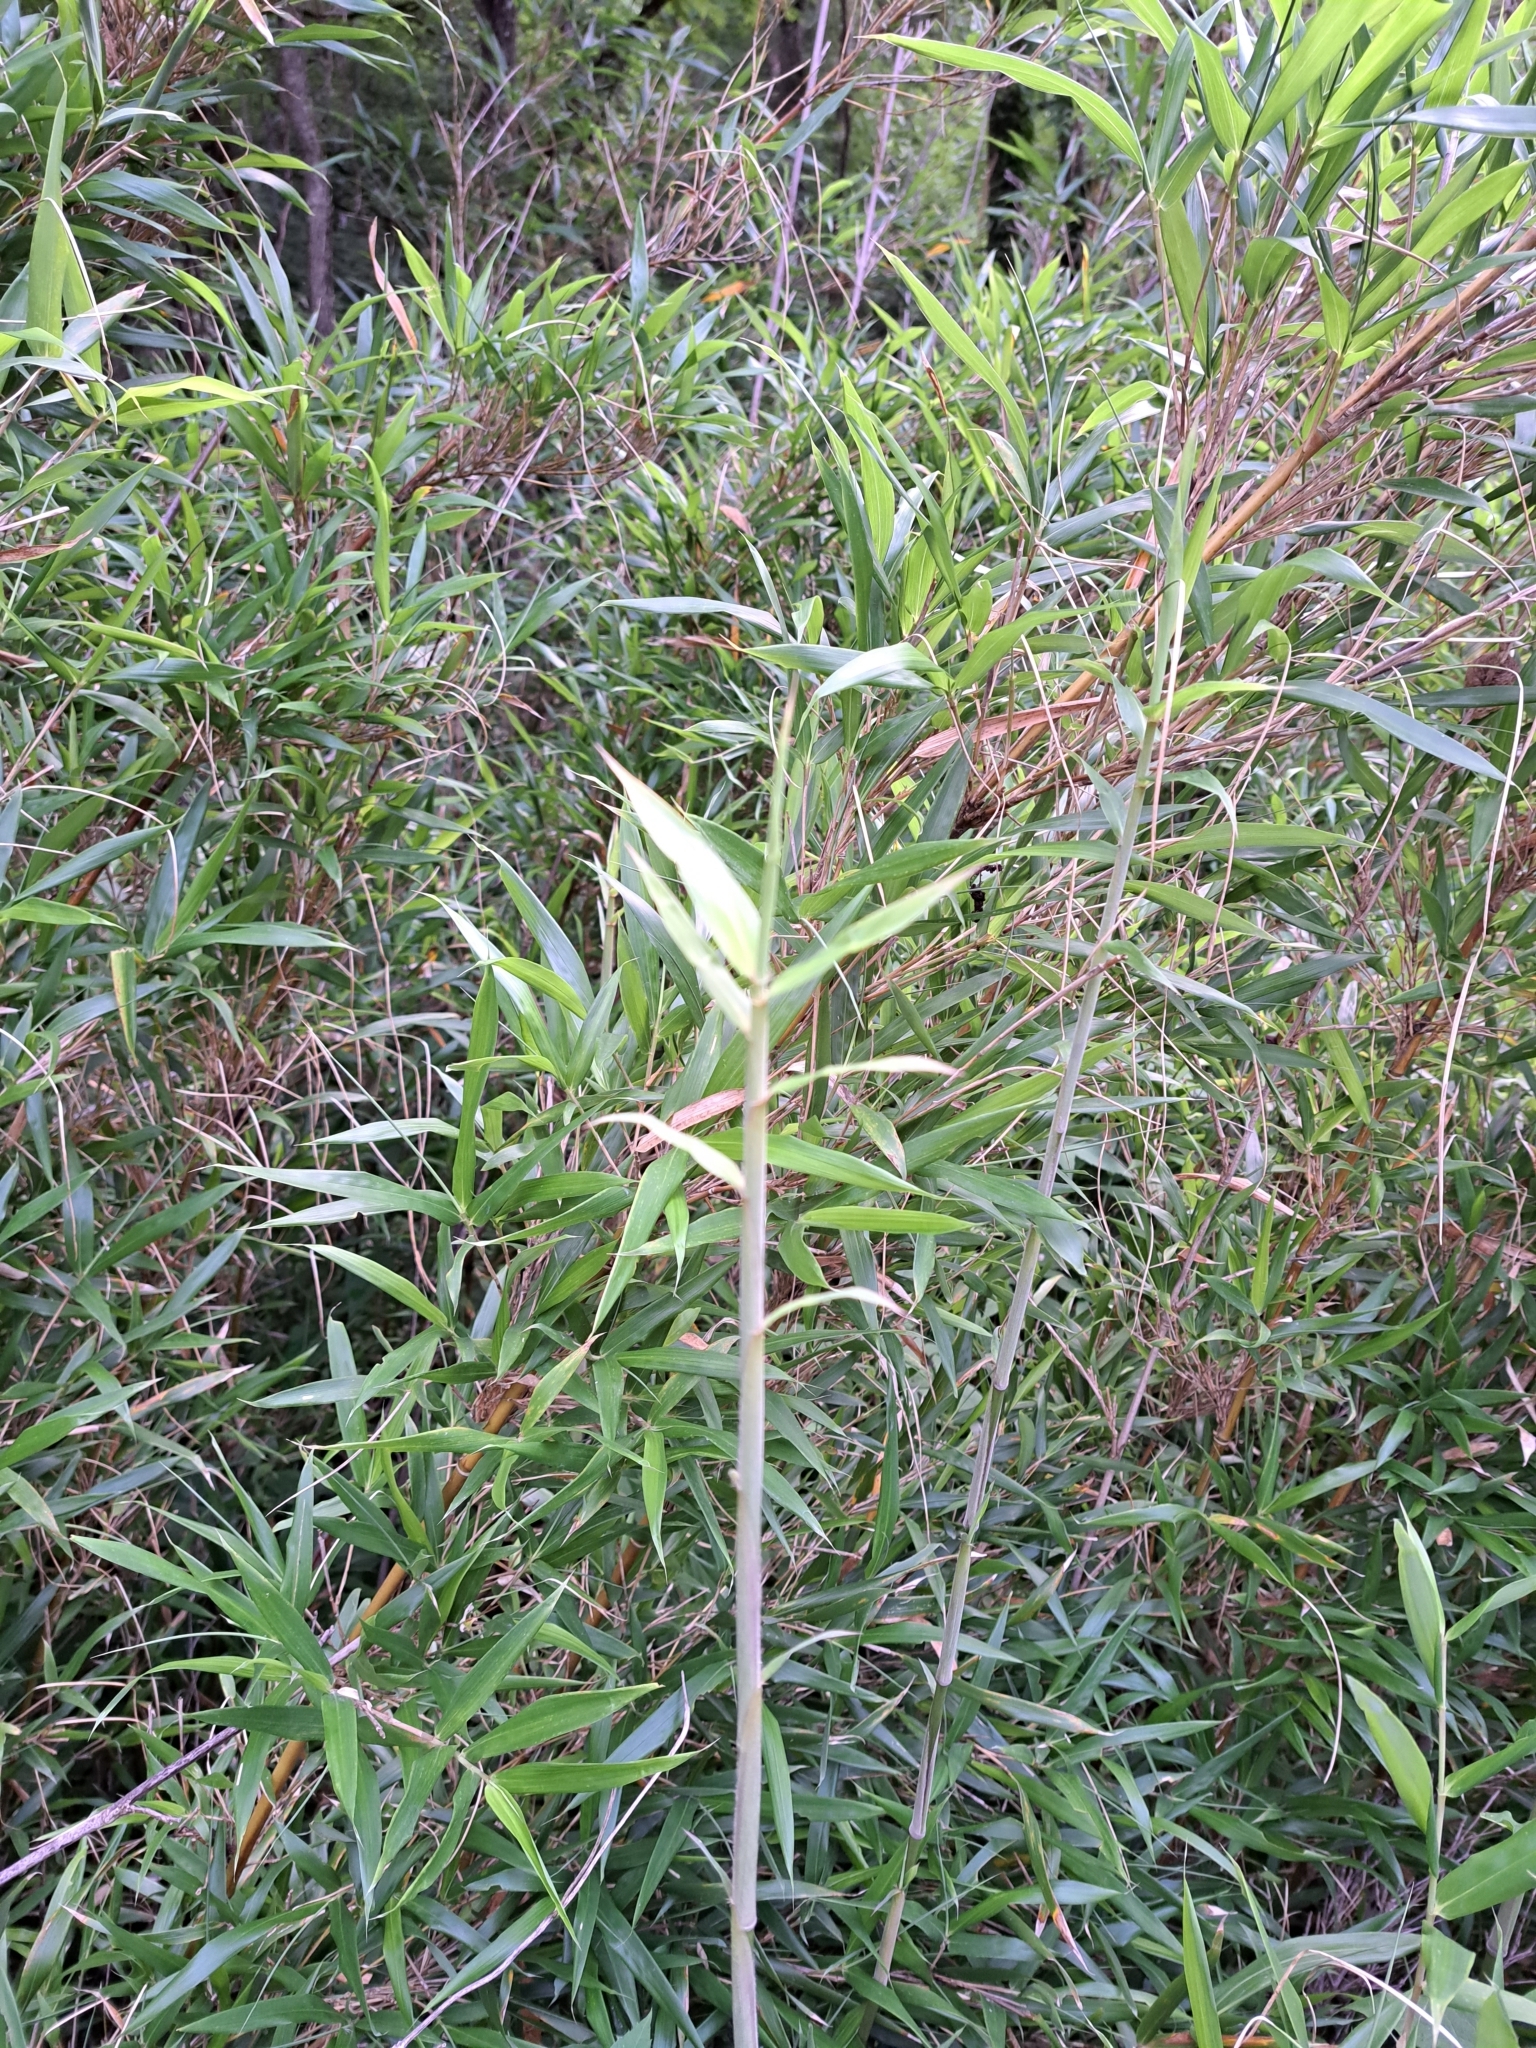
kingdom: Plantae
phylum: Tracheophyta
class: Liliopsida
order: Poales
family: Poaceae
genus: Arundinaria
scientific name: Arundinaria gigantea
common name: Giant cane
